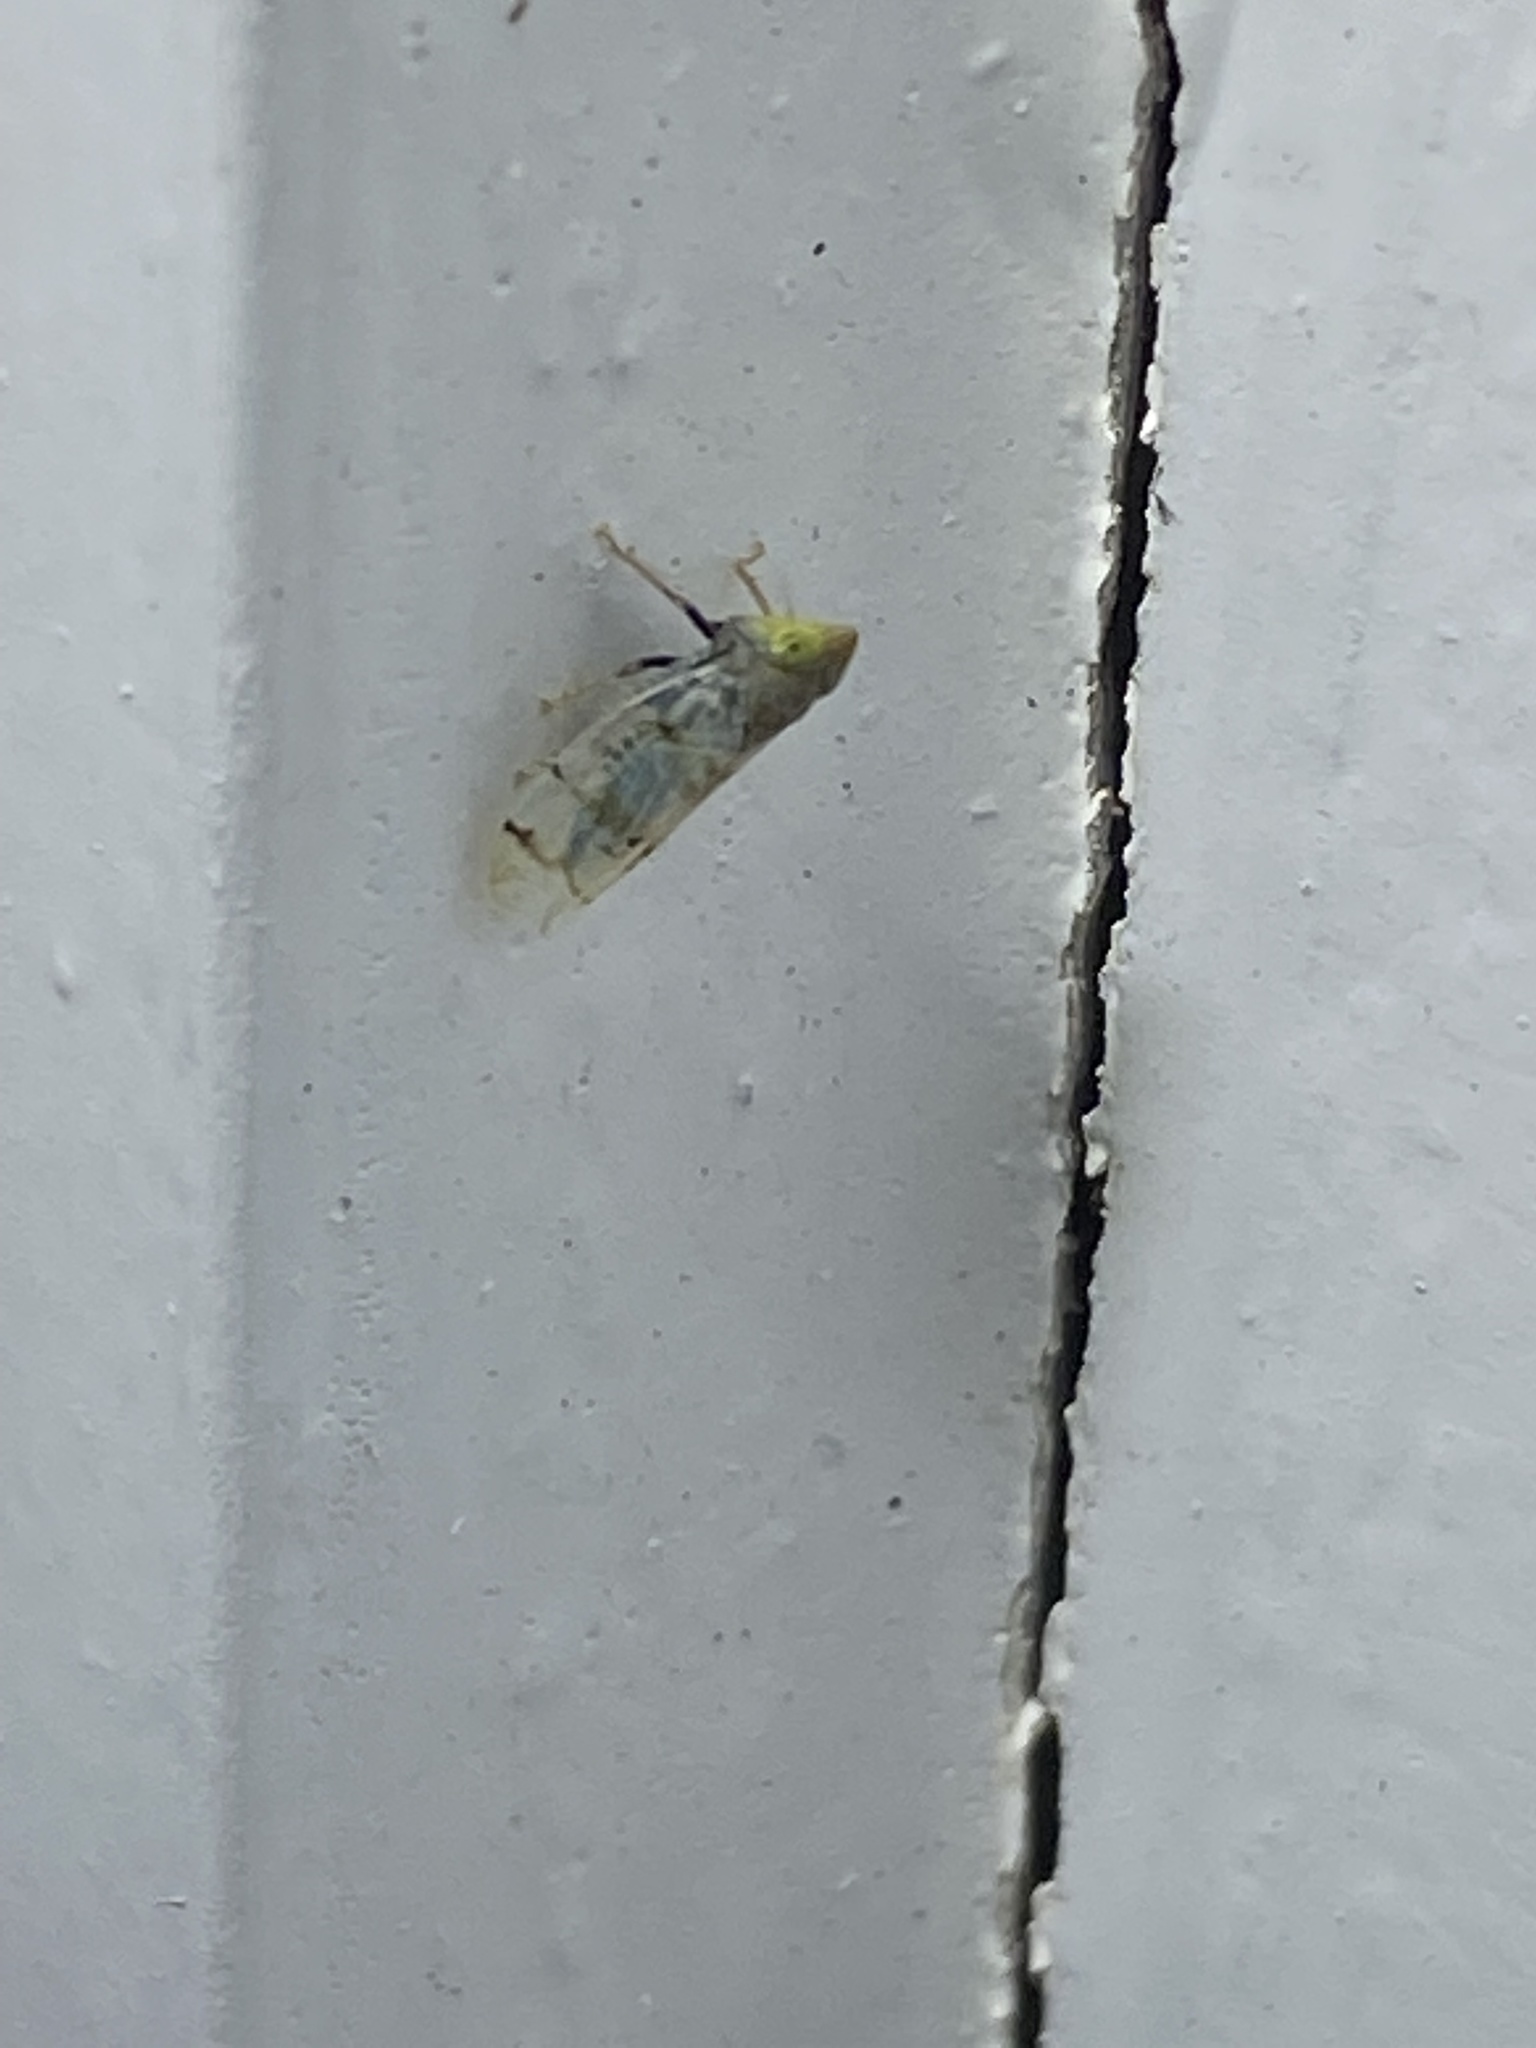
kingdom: Animalia
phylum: Arthropoda
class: Insecta
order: Hemiptera
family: Cicadellidae
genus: Japananus
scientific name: Japananus hyalinus
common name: The japanese maple leafhopper
